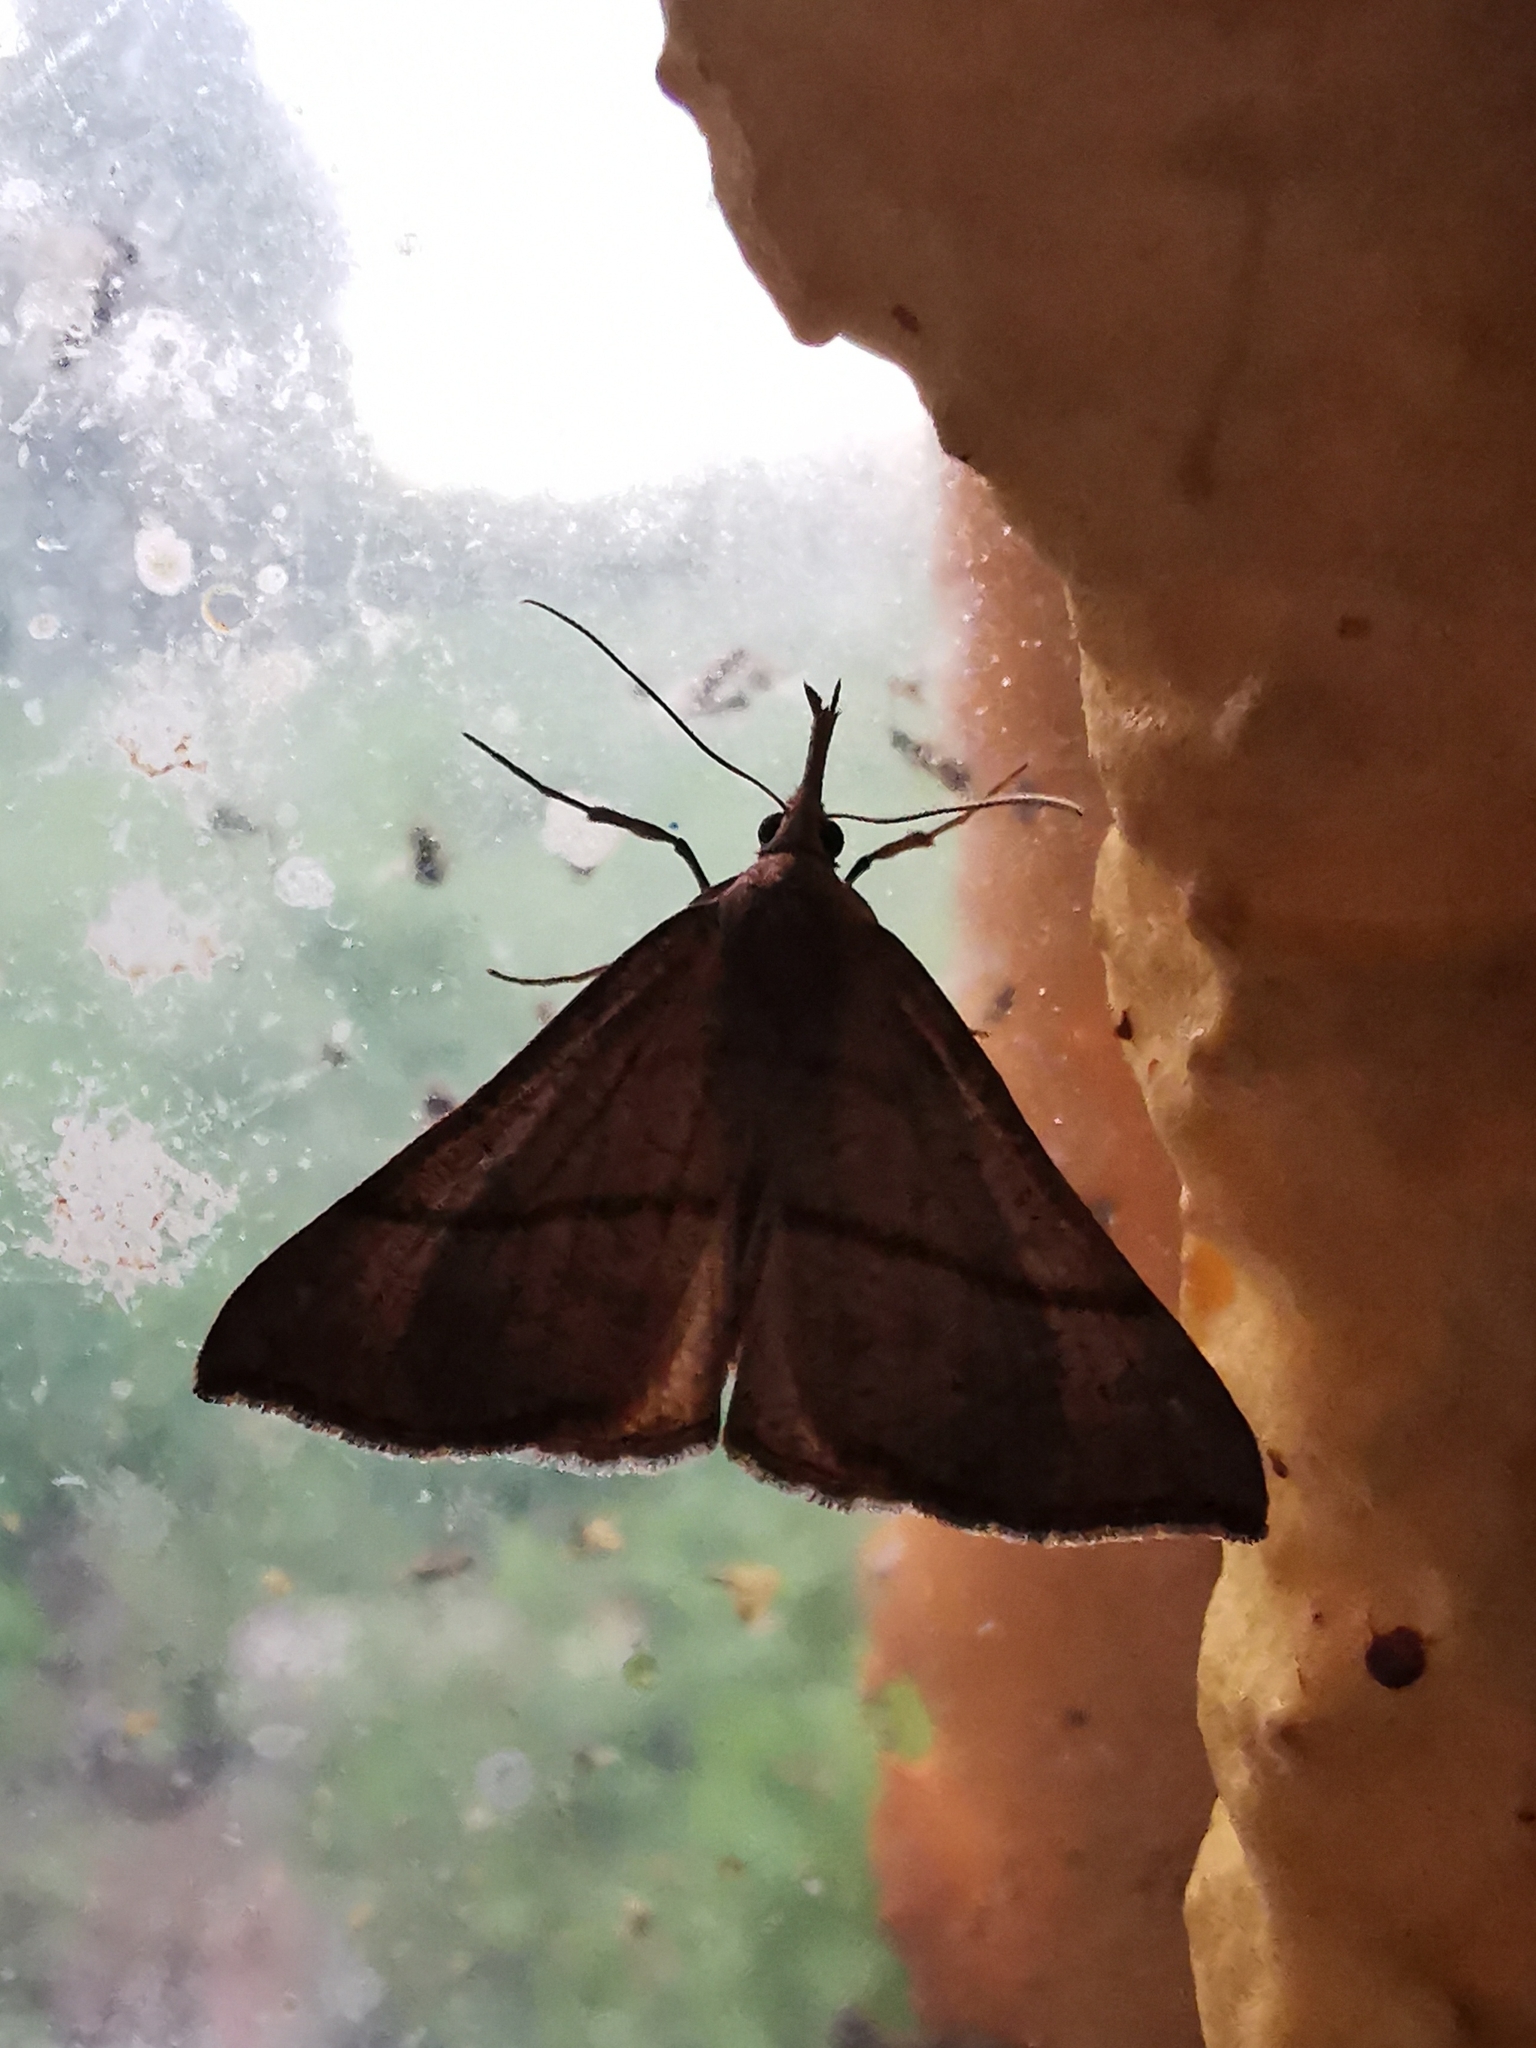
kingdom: Animalia
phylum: Arthropoda
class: Insecta
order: Lepidoptera
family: Erebidae
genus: Hypena
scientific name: Hypena proboscidalis
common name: Snout
